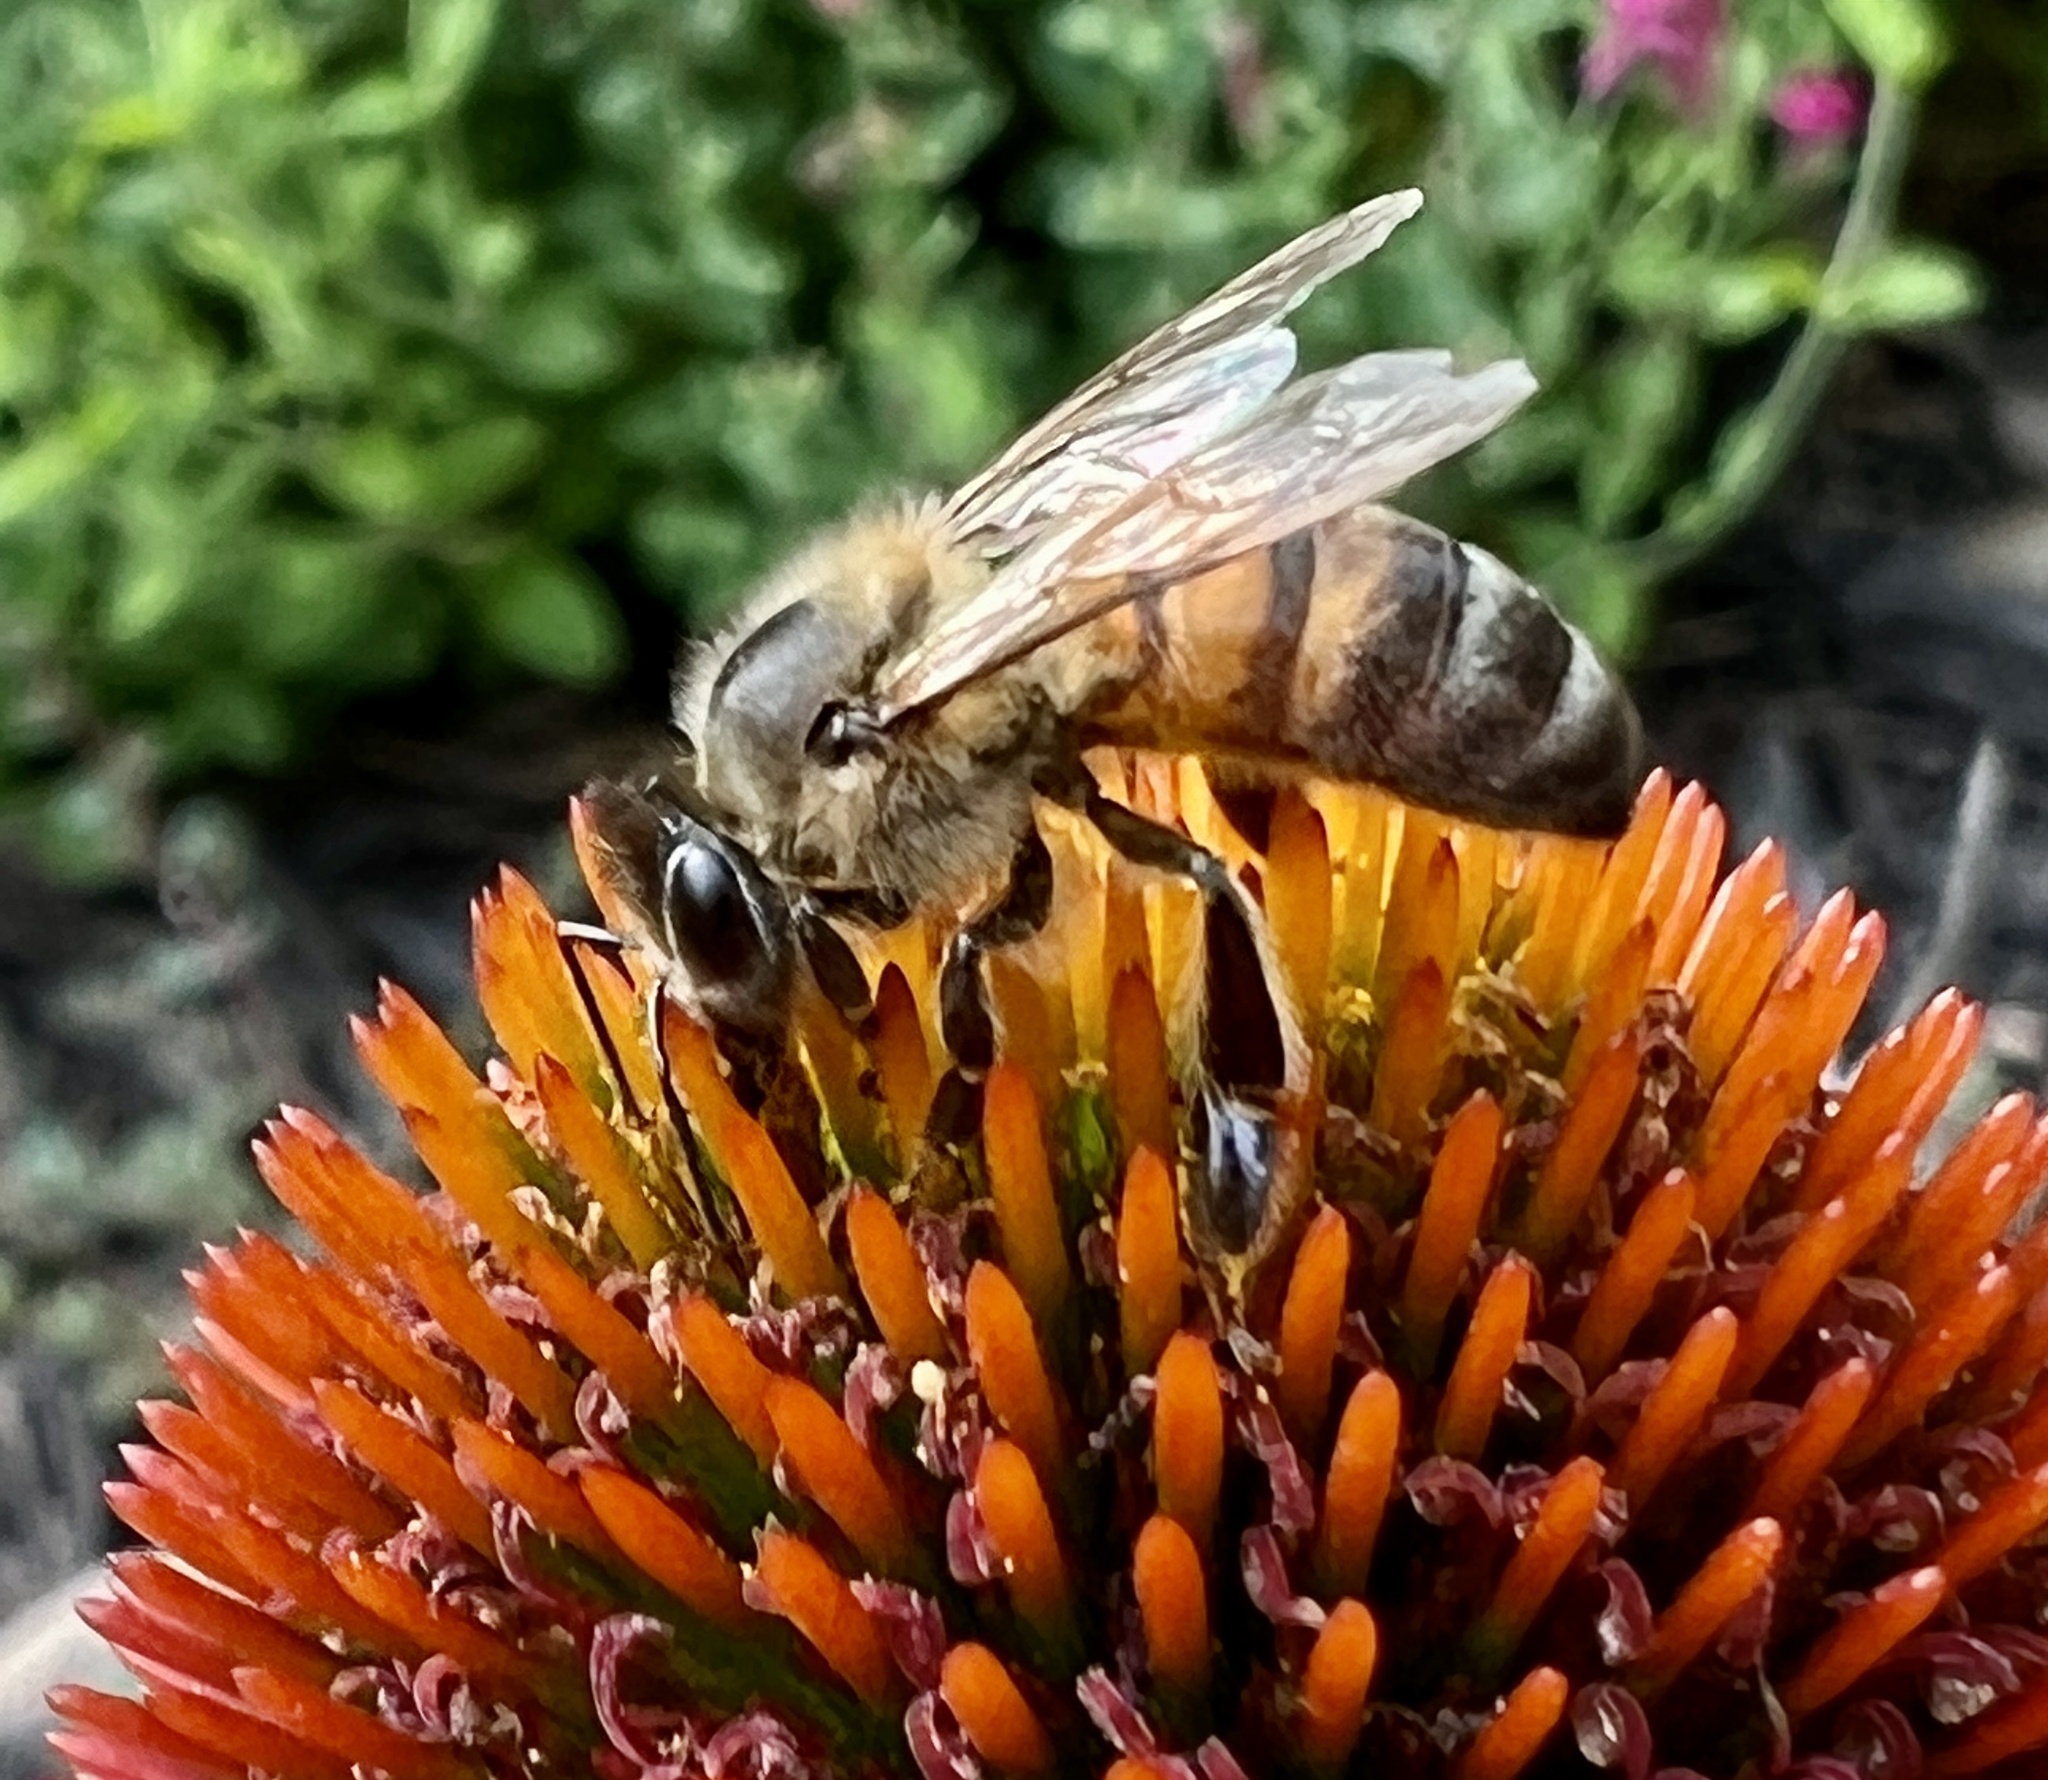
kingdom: Animalia
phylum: Arthropoda
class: Insecta
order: Hymenoptera
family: Apidae
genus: Apis
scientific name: Apis mellifera
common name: Honey bee
